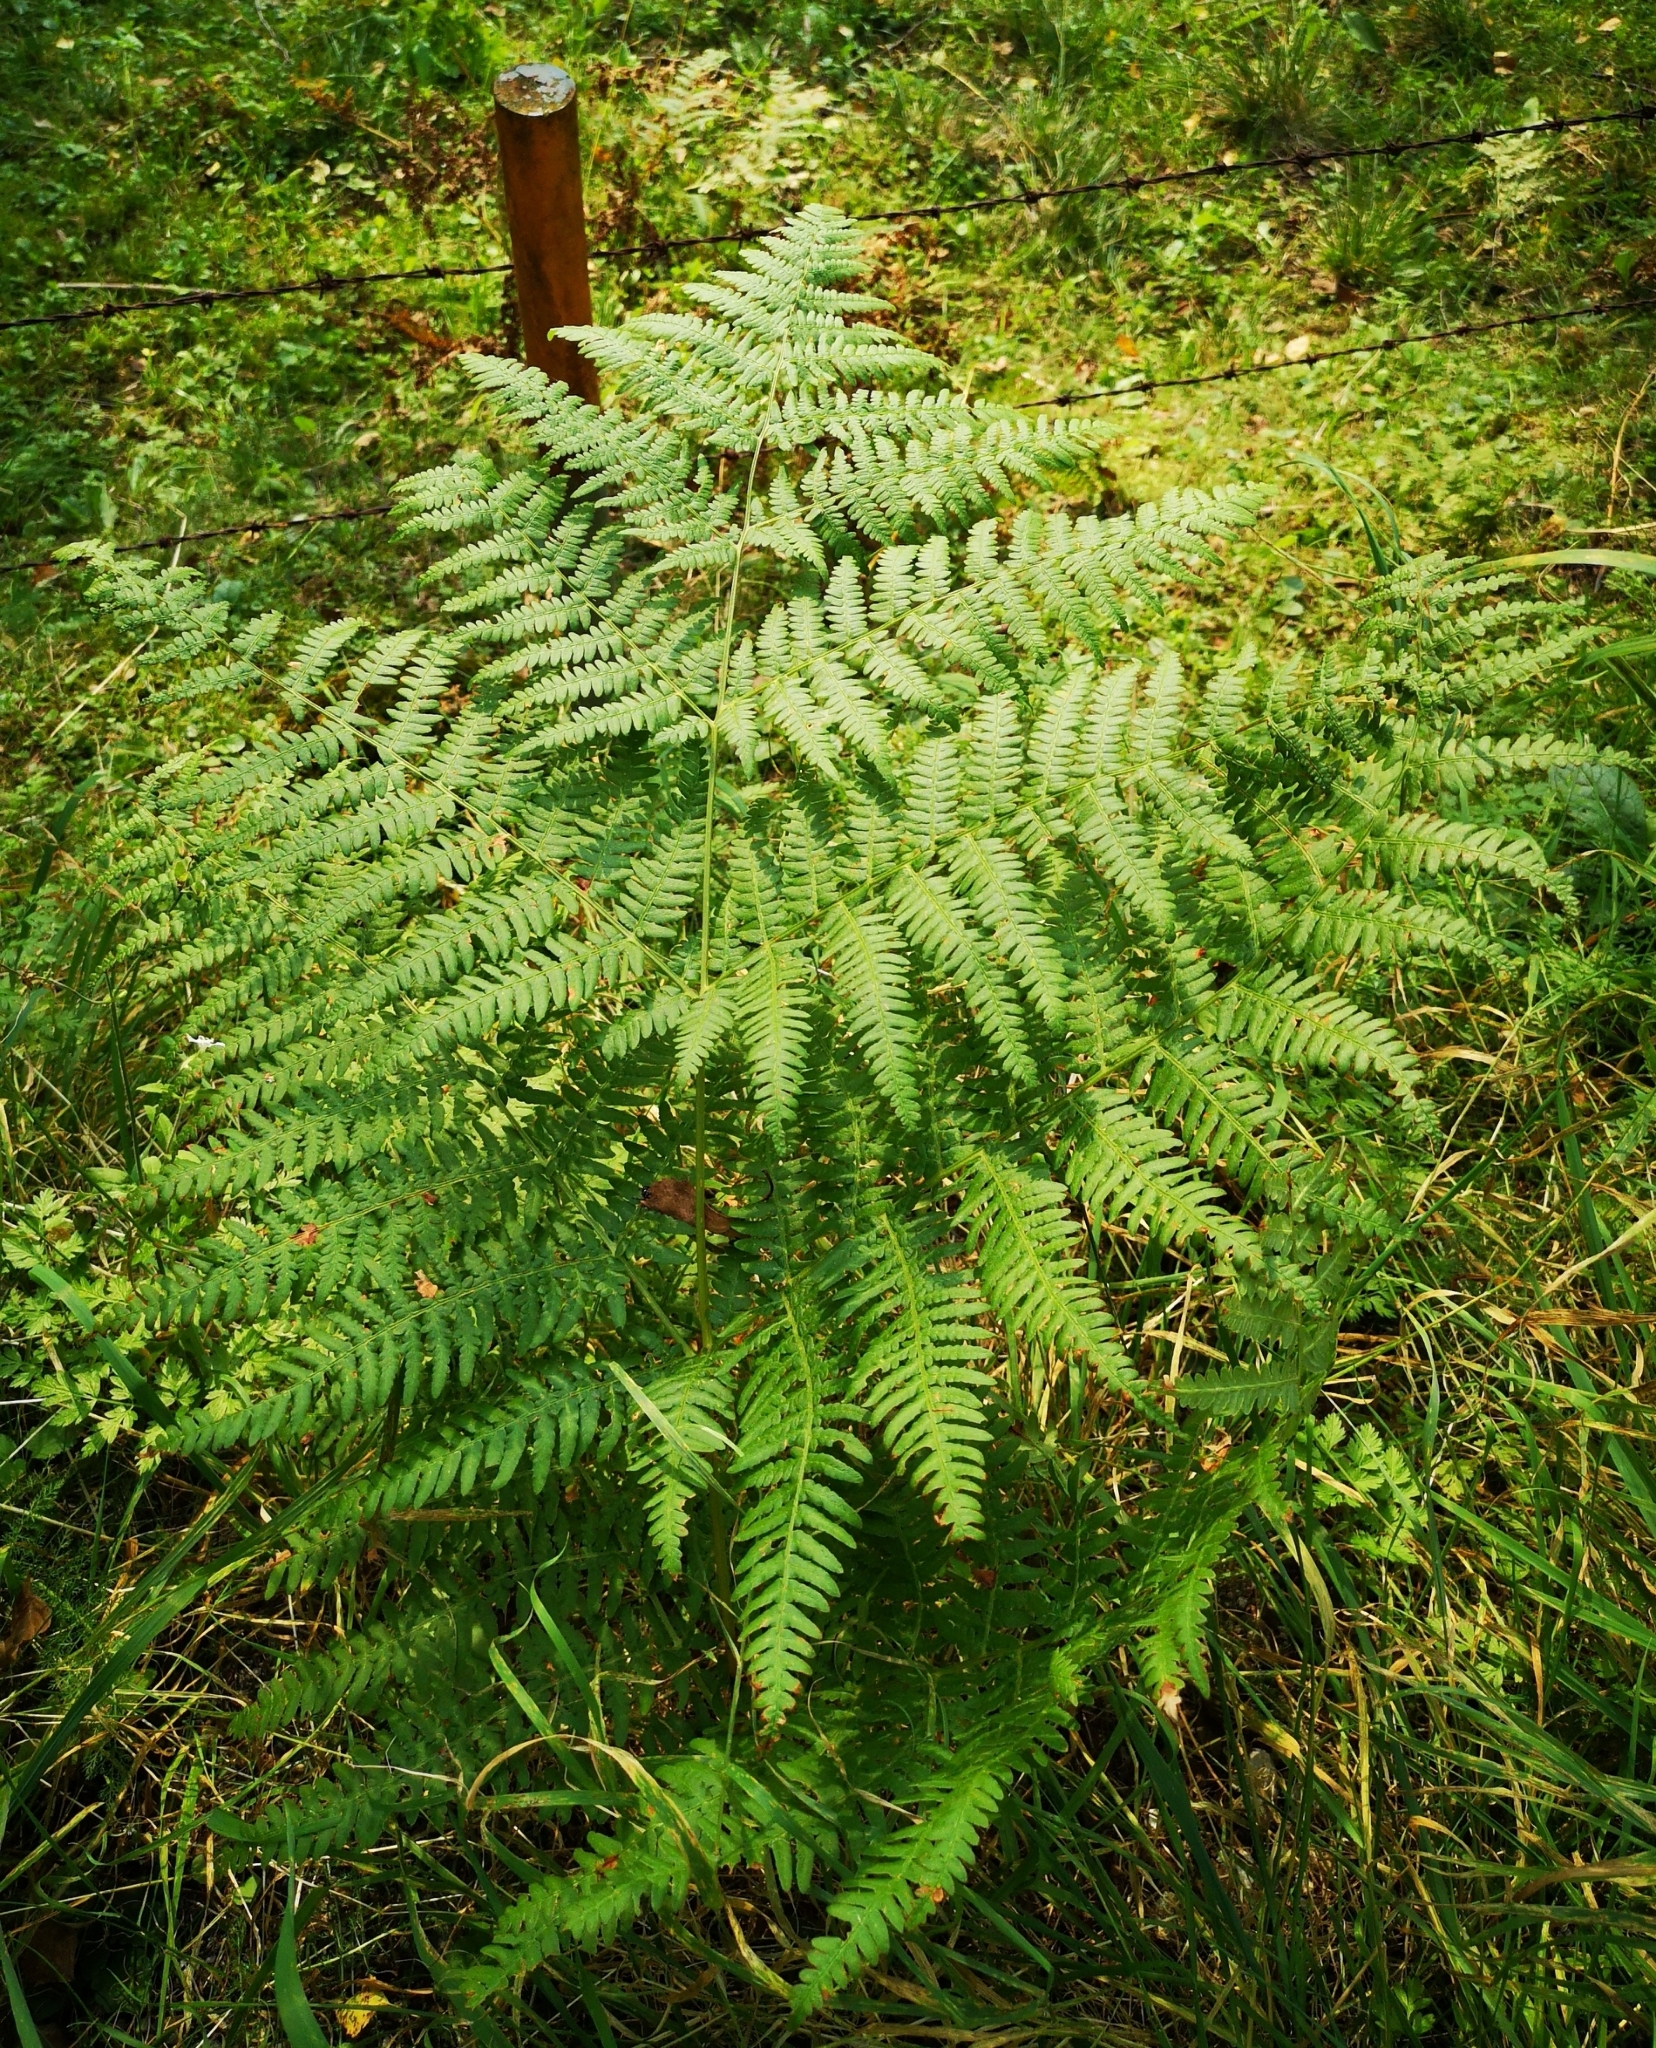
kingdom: Plantae
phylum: Tracheophyta
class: Polypodiopsida
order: Polypodiales
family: Dennstaedtiaceae
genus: Pteridium
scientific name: Pteridium aquilinum
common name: Bracken
